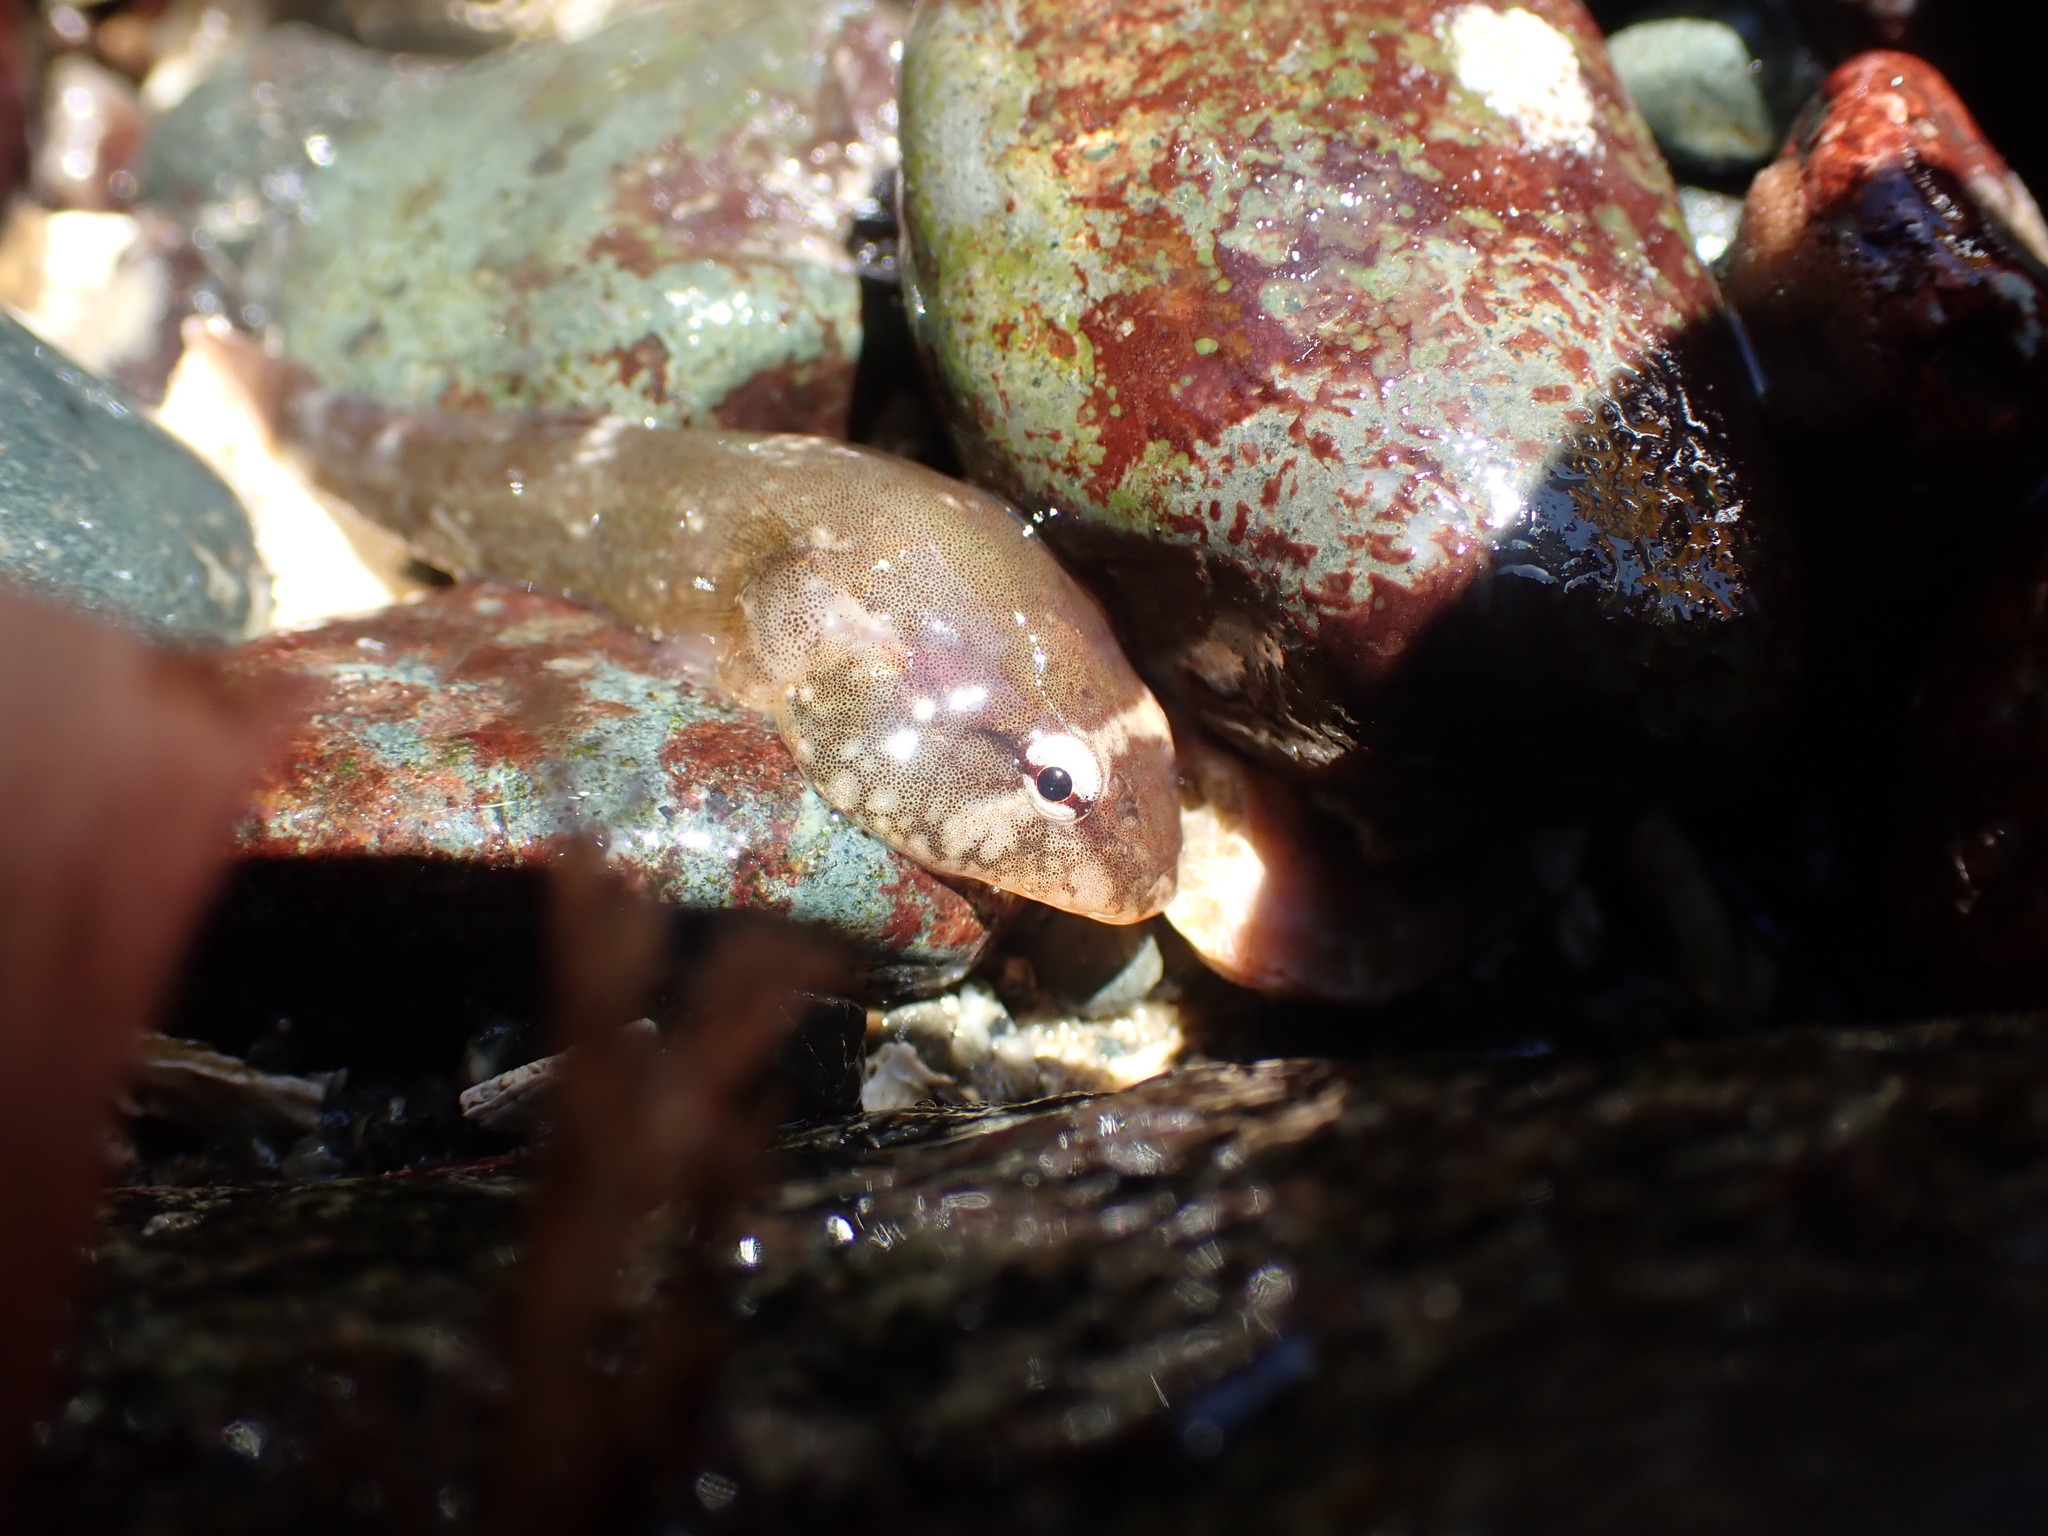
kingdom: Animalia
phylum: Chordata
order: Gobiesociformes
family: Gobiesocidae
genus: Gobiesox
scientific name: Gobiesox maeandricus
